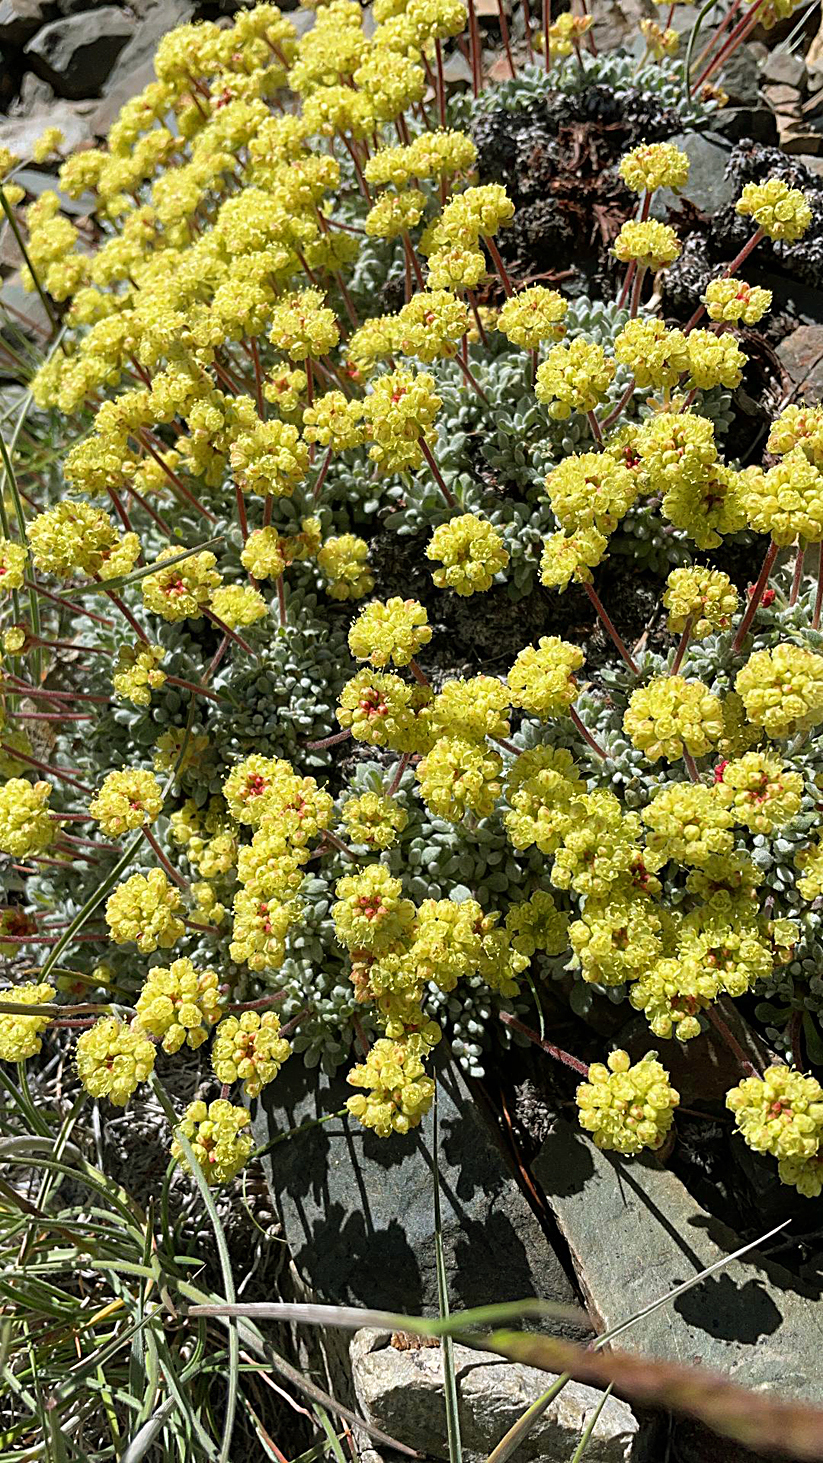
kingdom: Plantae
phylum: Tracheophyta
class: Magnoliopsida
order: Caryophyllales
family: Polygonaceae
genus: Eriogonum
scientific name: Eriogonum caespitosum
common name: Matted wild buckwheat
